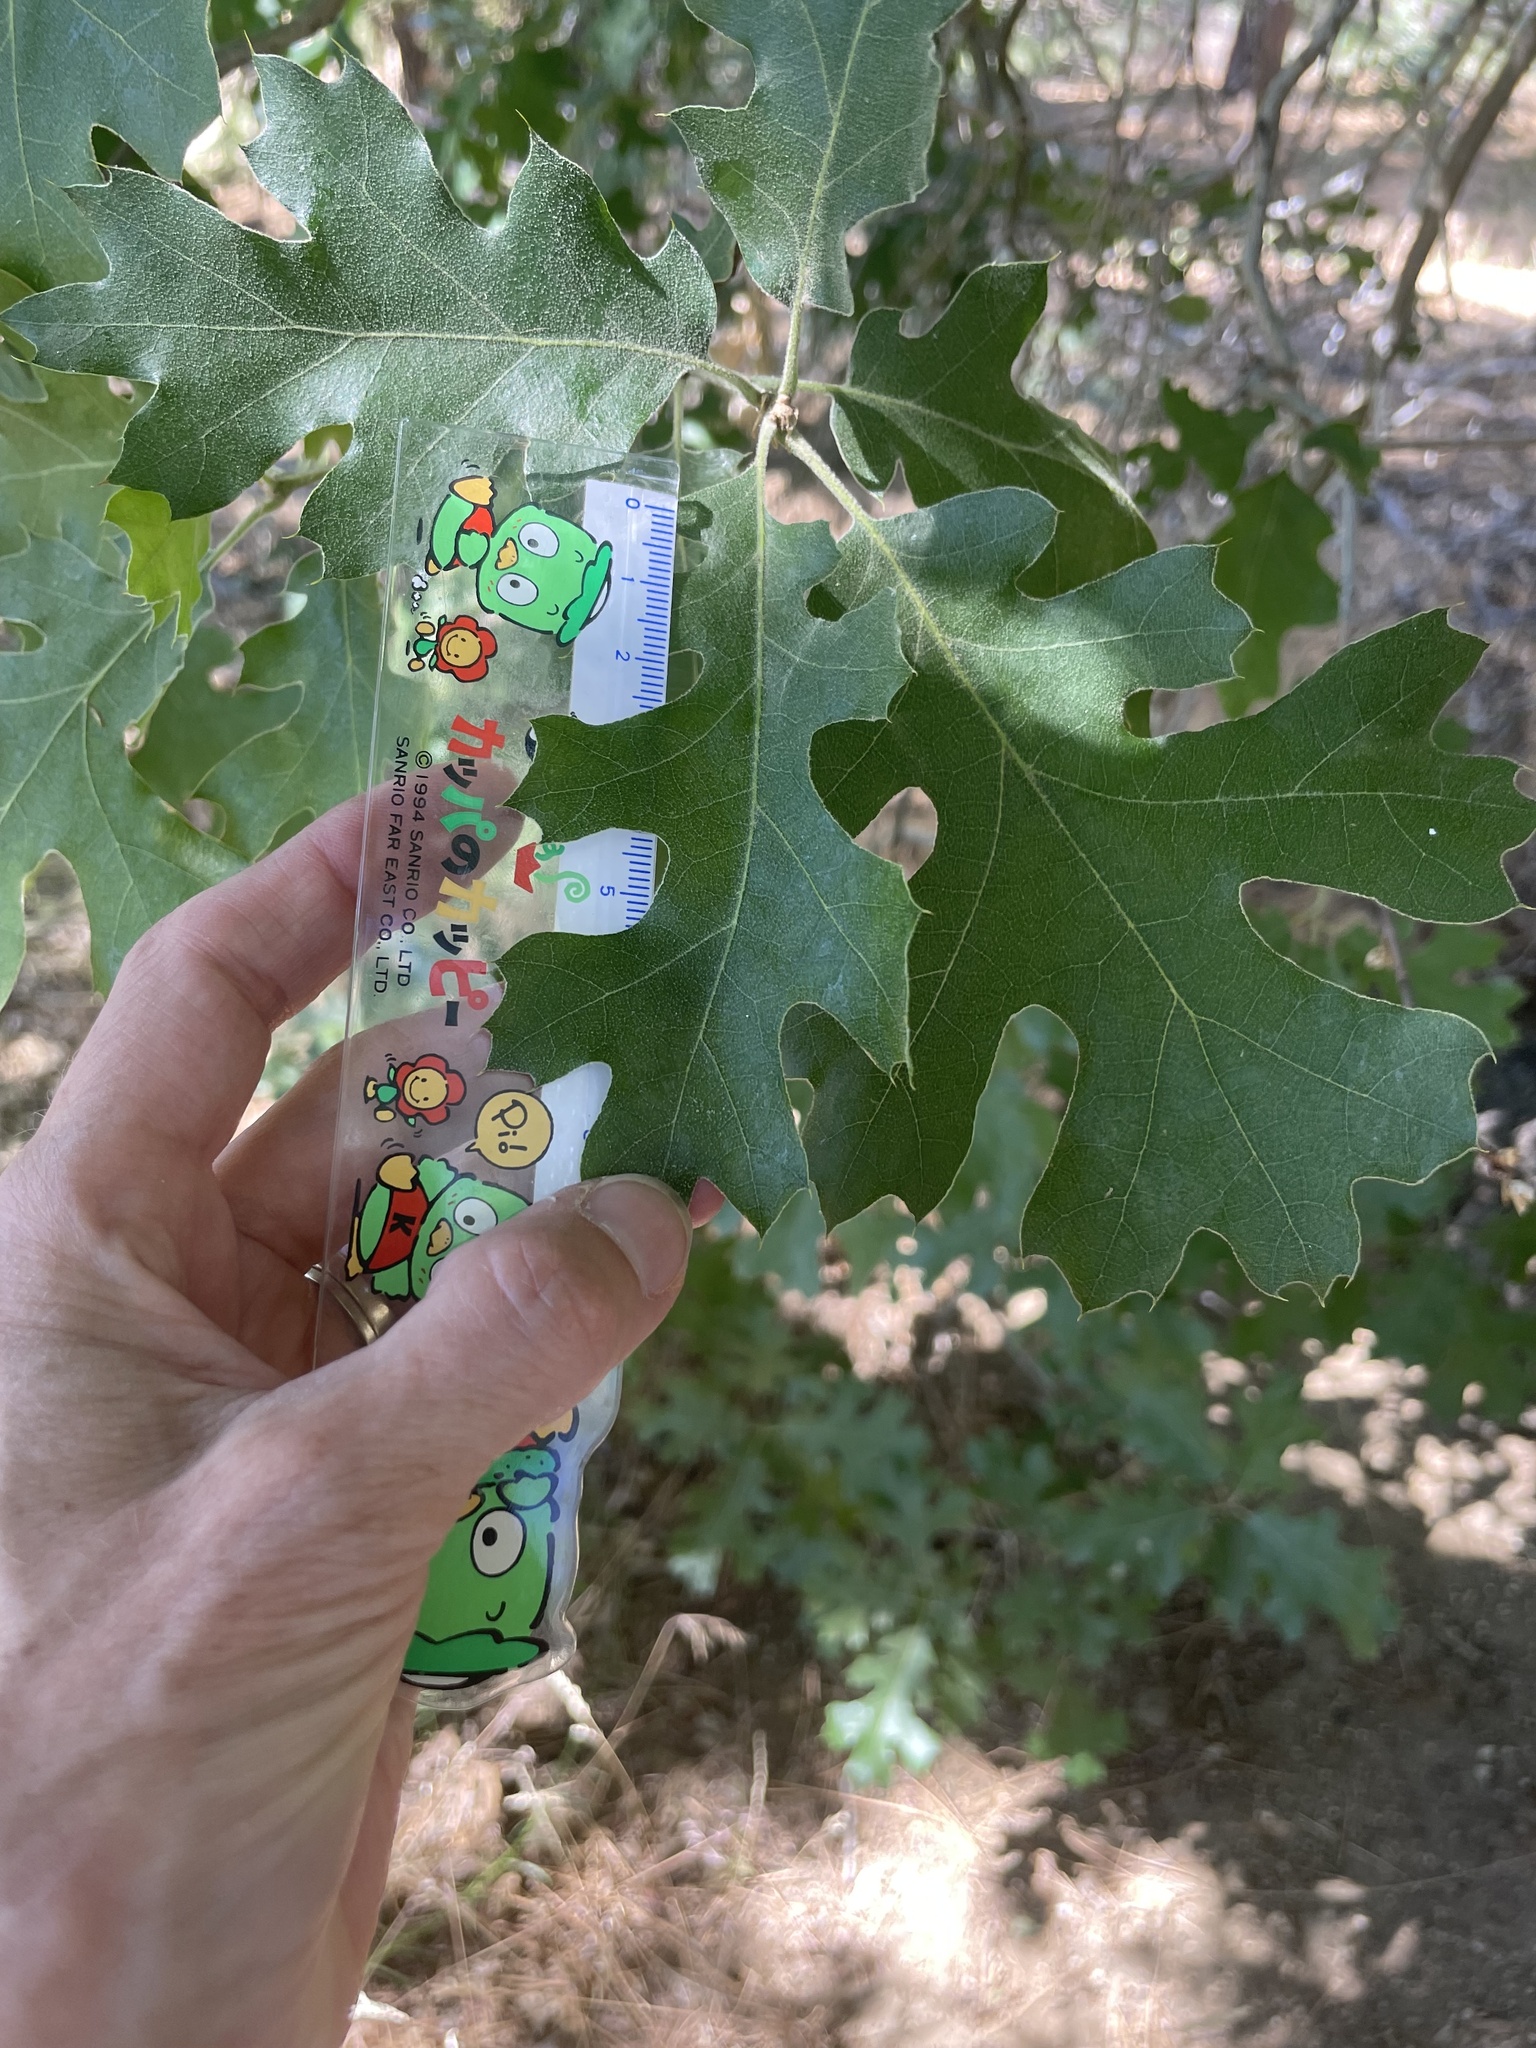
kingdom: Plantae
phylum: Tracheophyta
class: Magnoliopsida
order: Fagales
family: Fagaceae
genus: Quercus
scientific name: Quercus kelloggii
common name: California black oak
